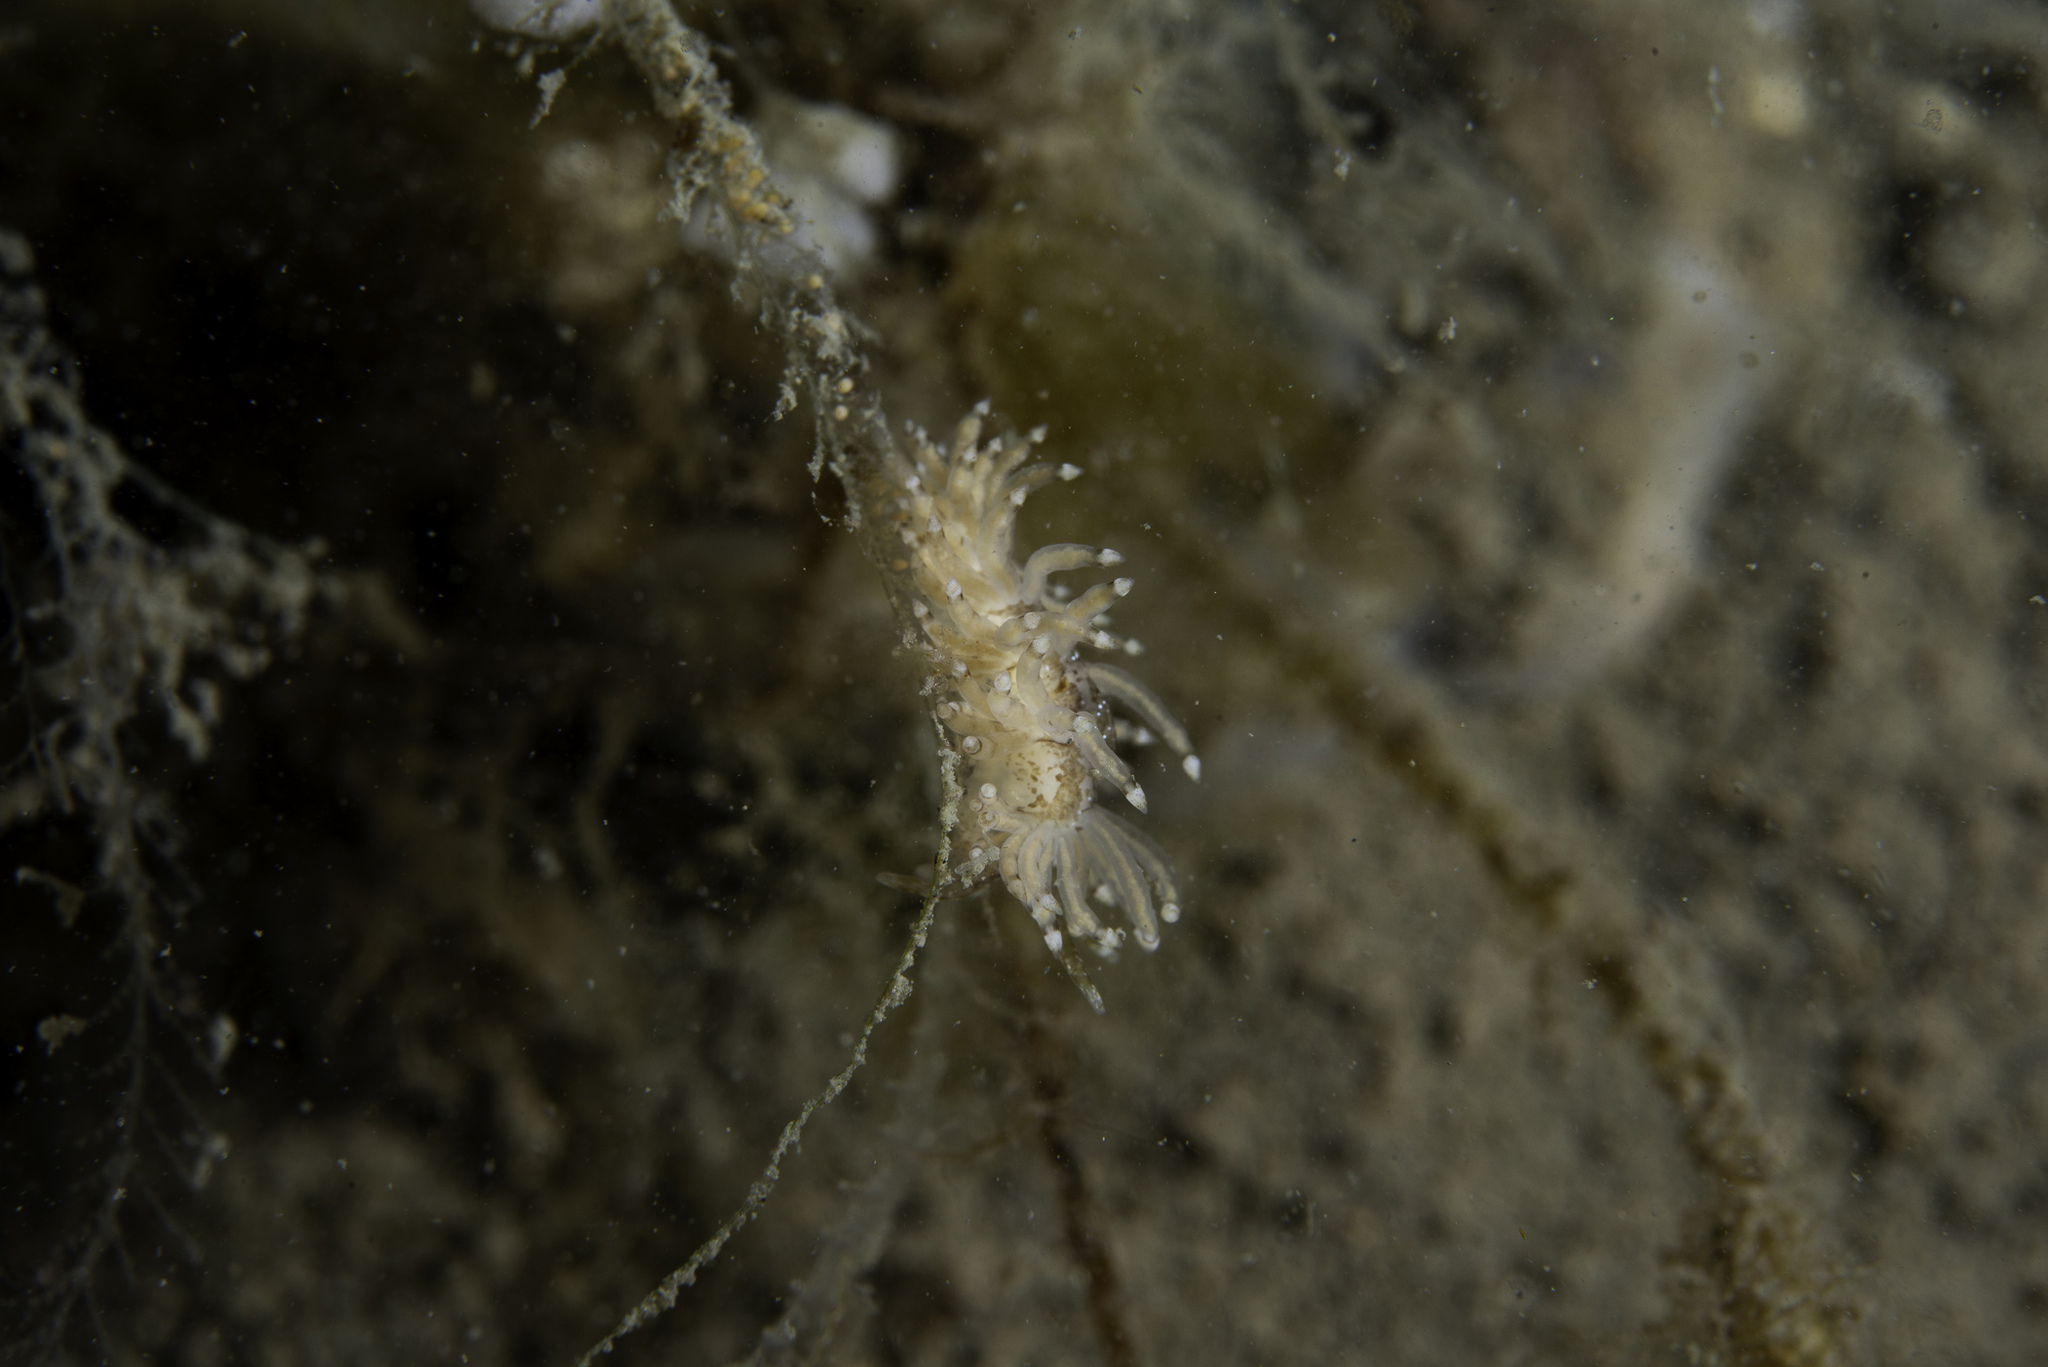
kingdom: Animalia
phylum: Mollusca
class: Gastropoda
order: Nudibranchia
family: Eubranchidae
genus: Eubranchus
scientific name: Eubranchus vittatus
